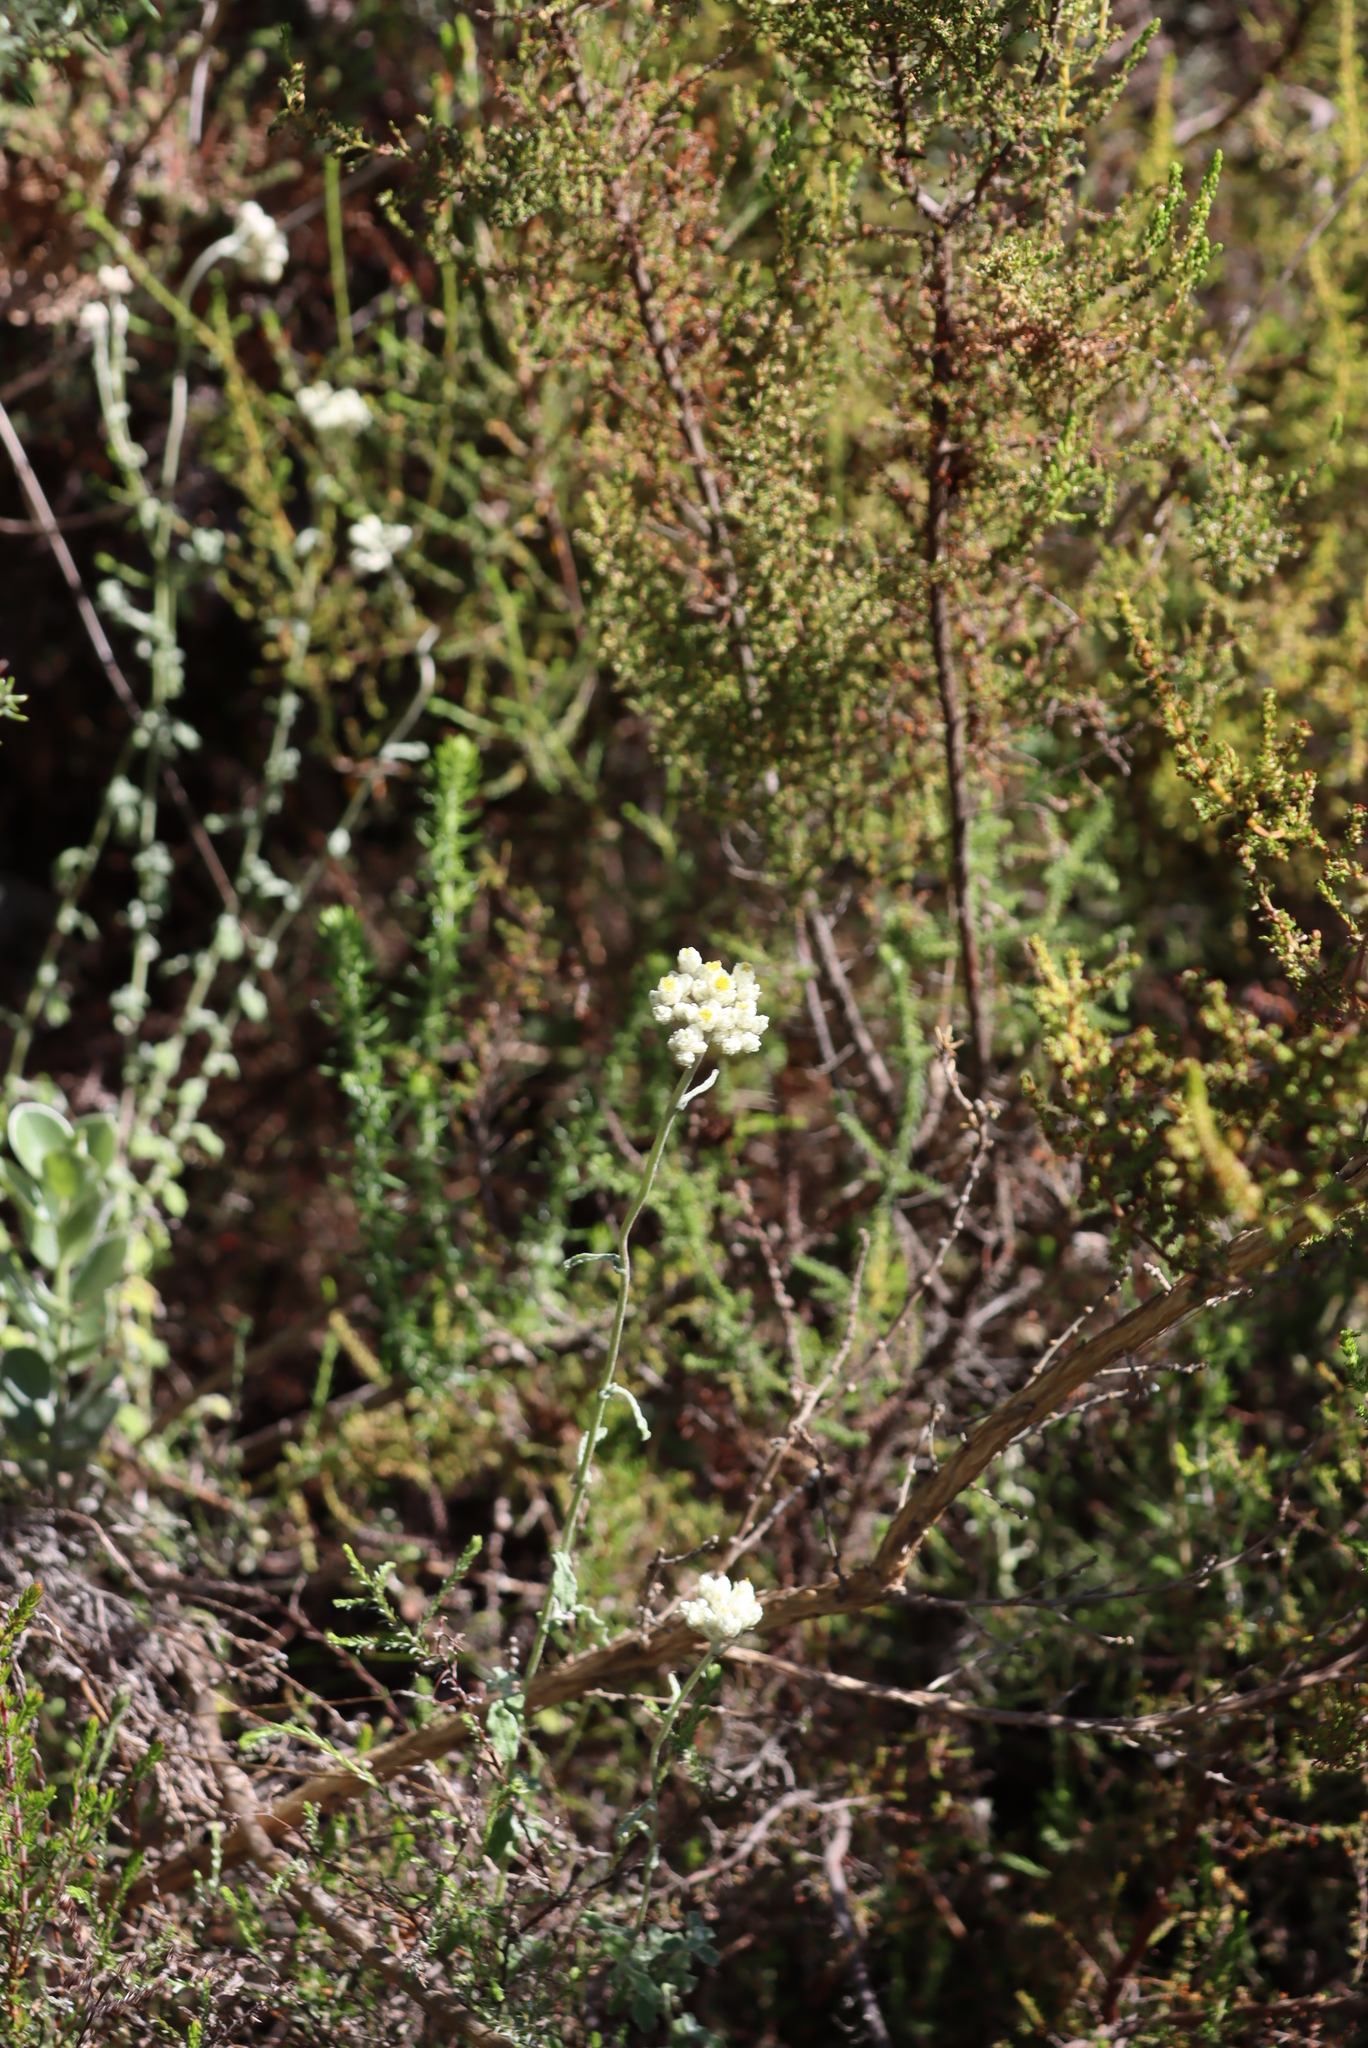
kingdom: Plantae
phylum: Tracheophyta
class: Magnoliopsida
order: Asterales
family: Asteraceae
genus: Helichrysum
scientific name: Helichrysum patulum
